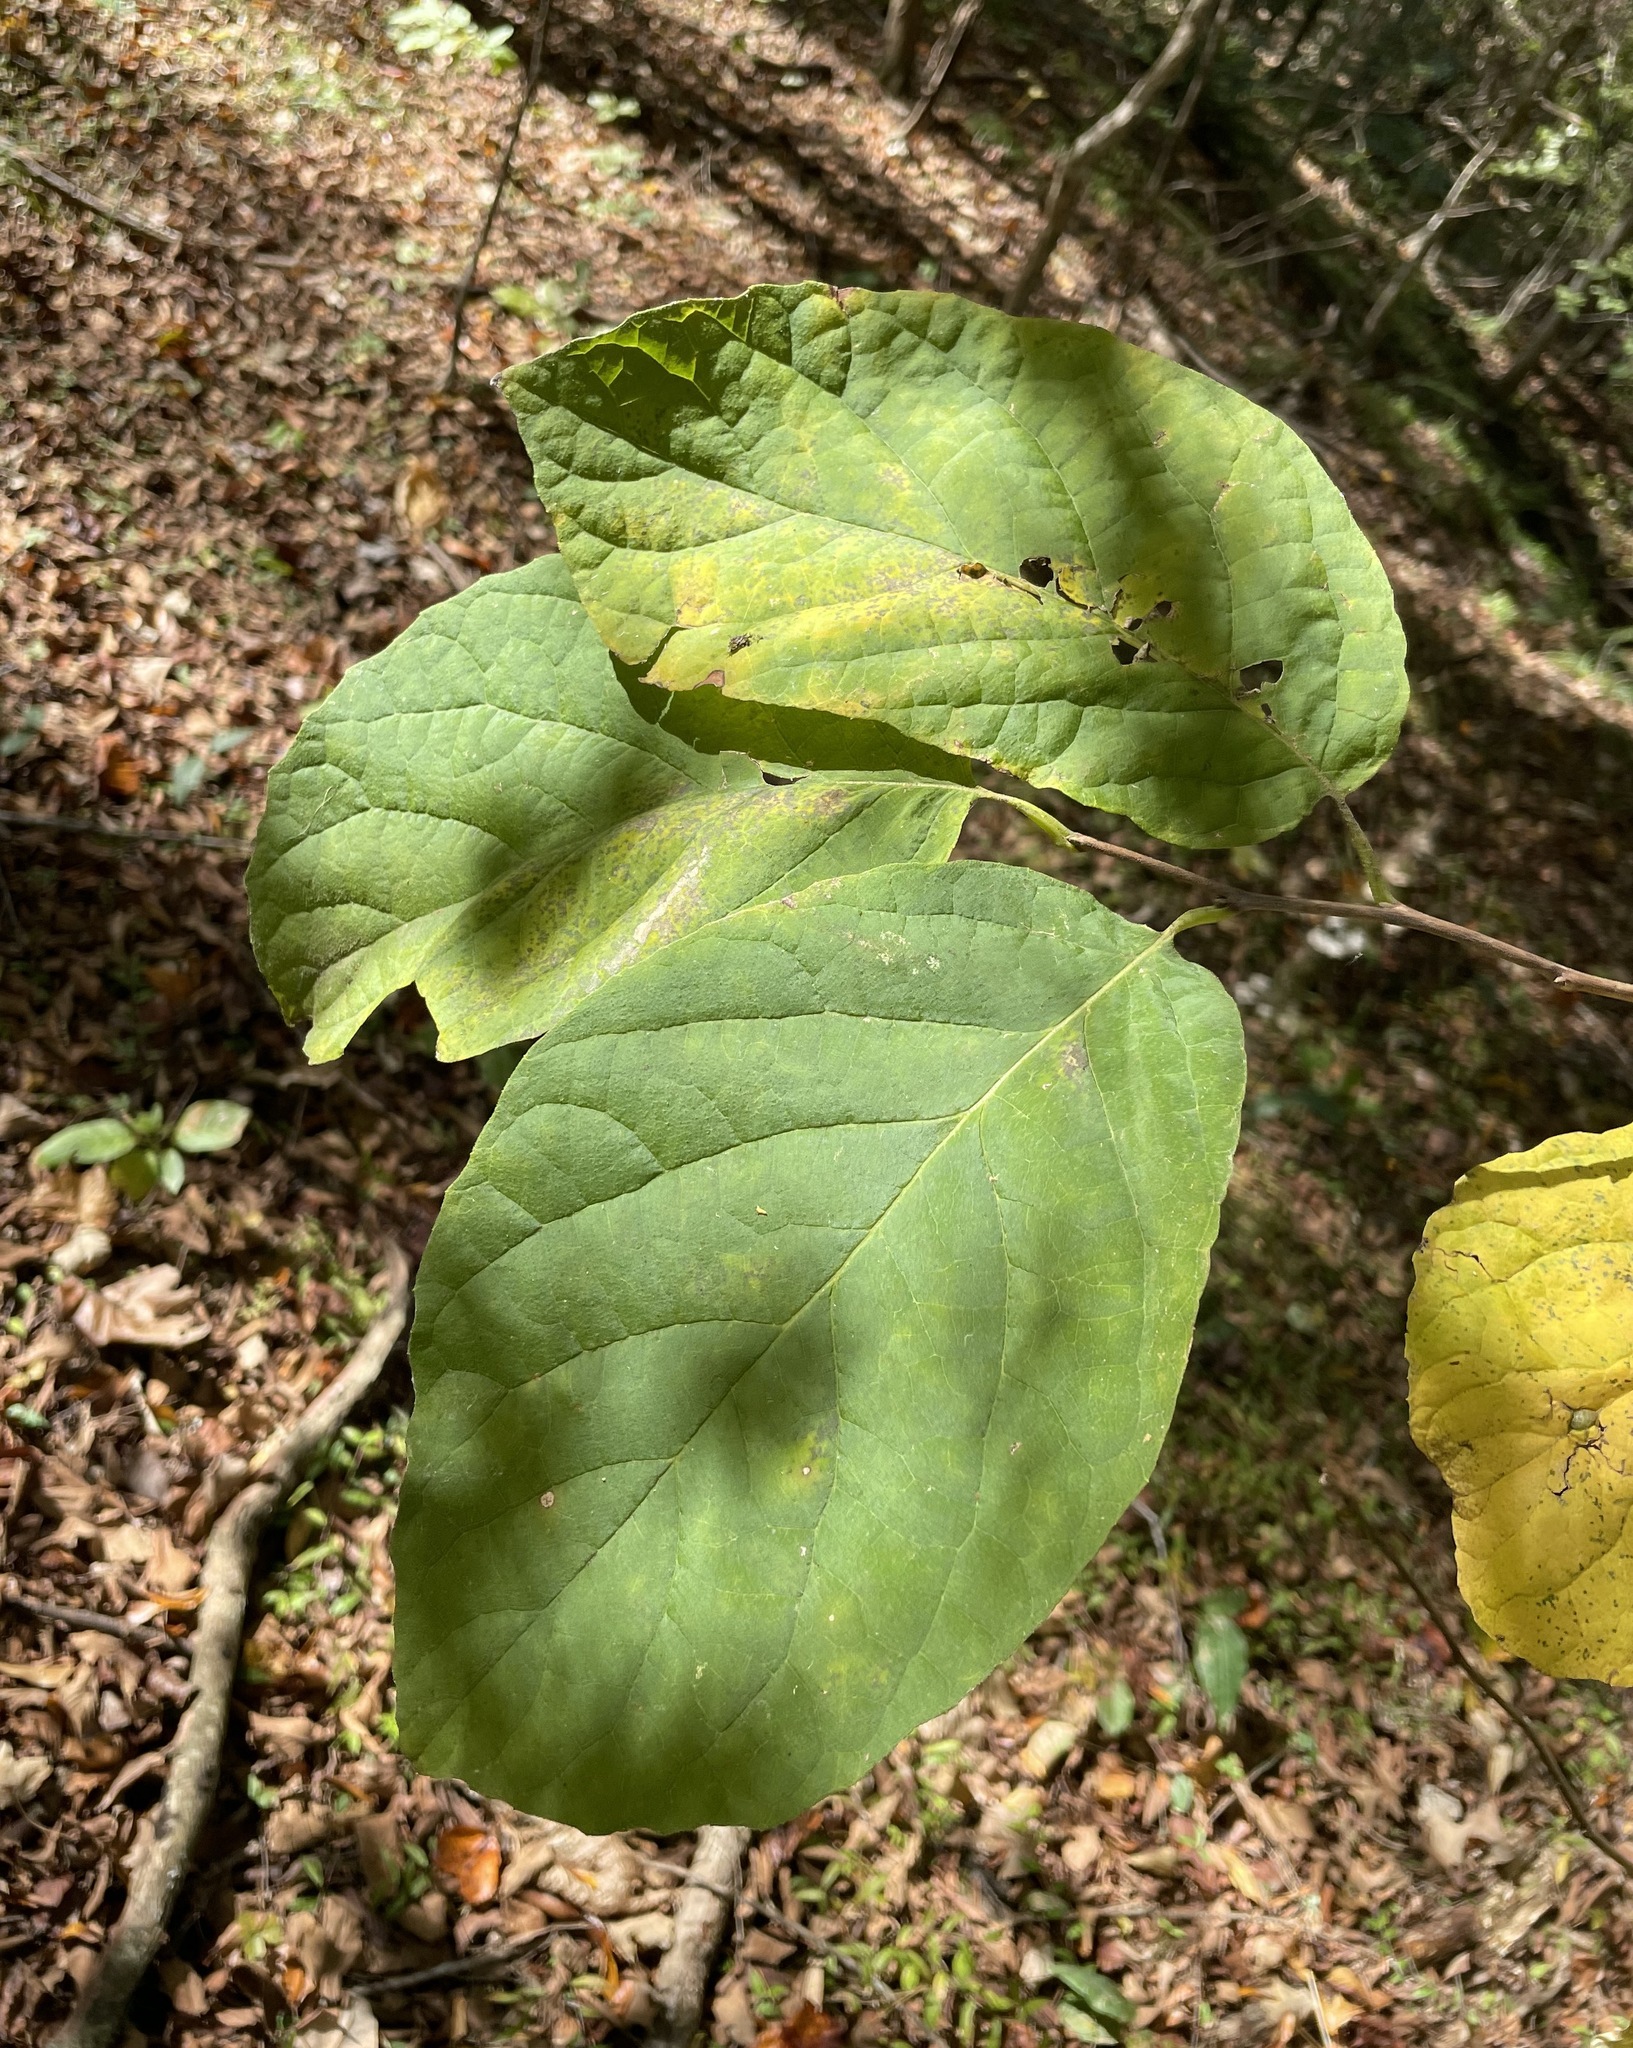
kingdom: Plantae
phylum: Tracheophyta
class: Magnoliopsida
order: Ericales
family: Styracaceae
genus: Halesia
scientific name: Halesia diptera
